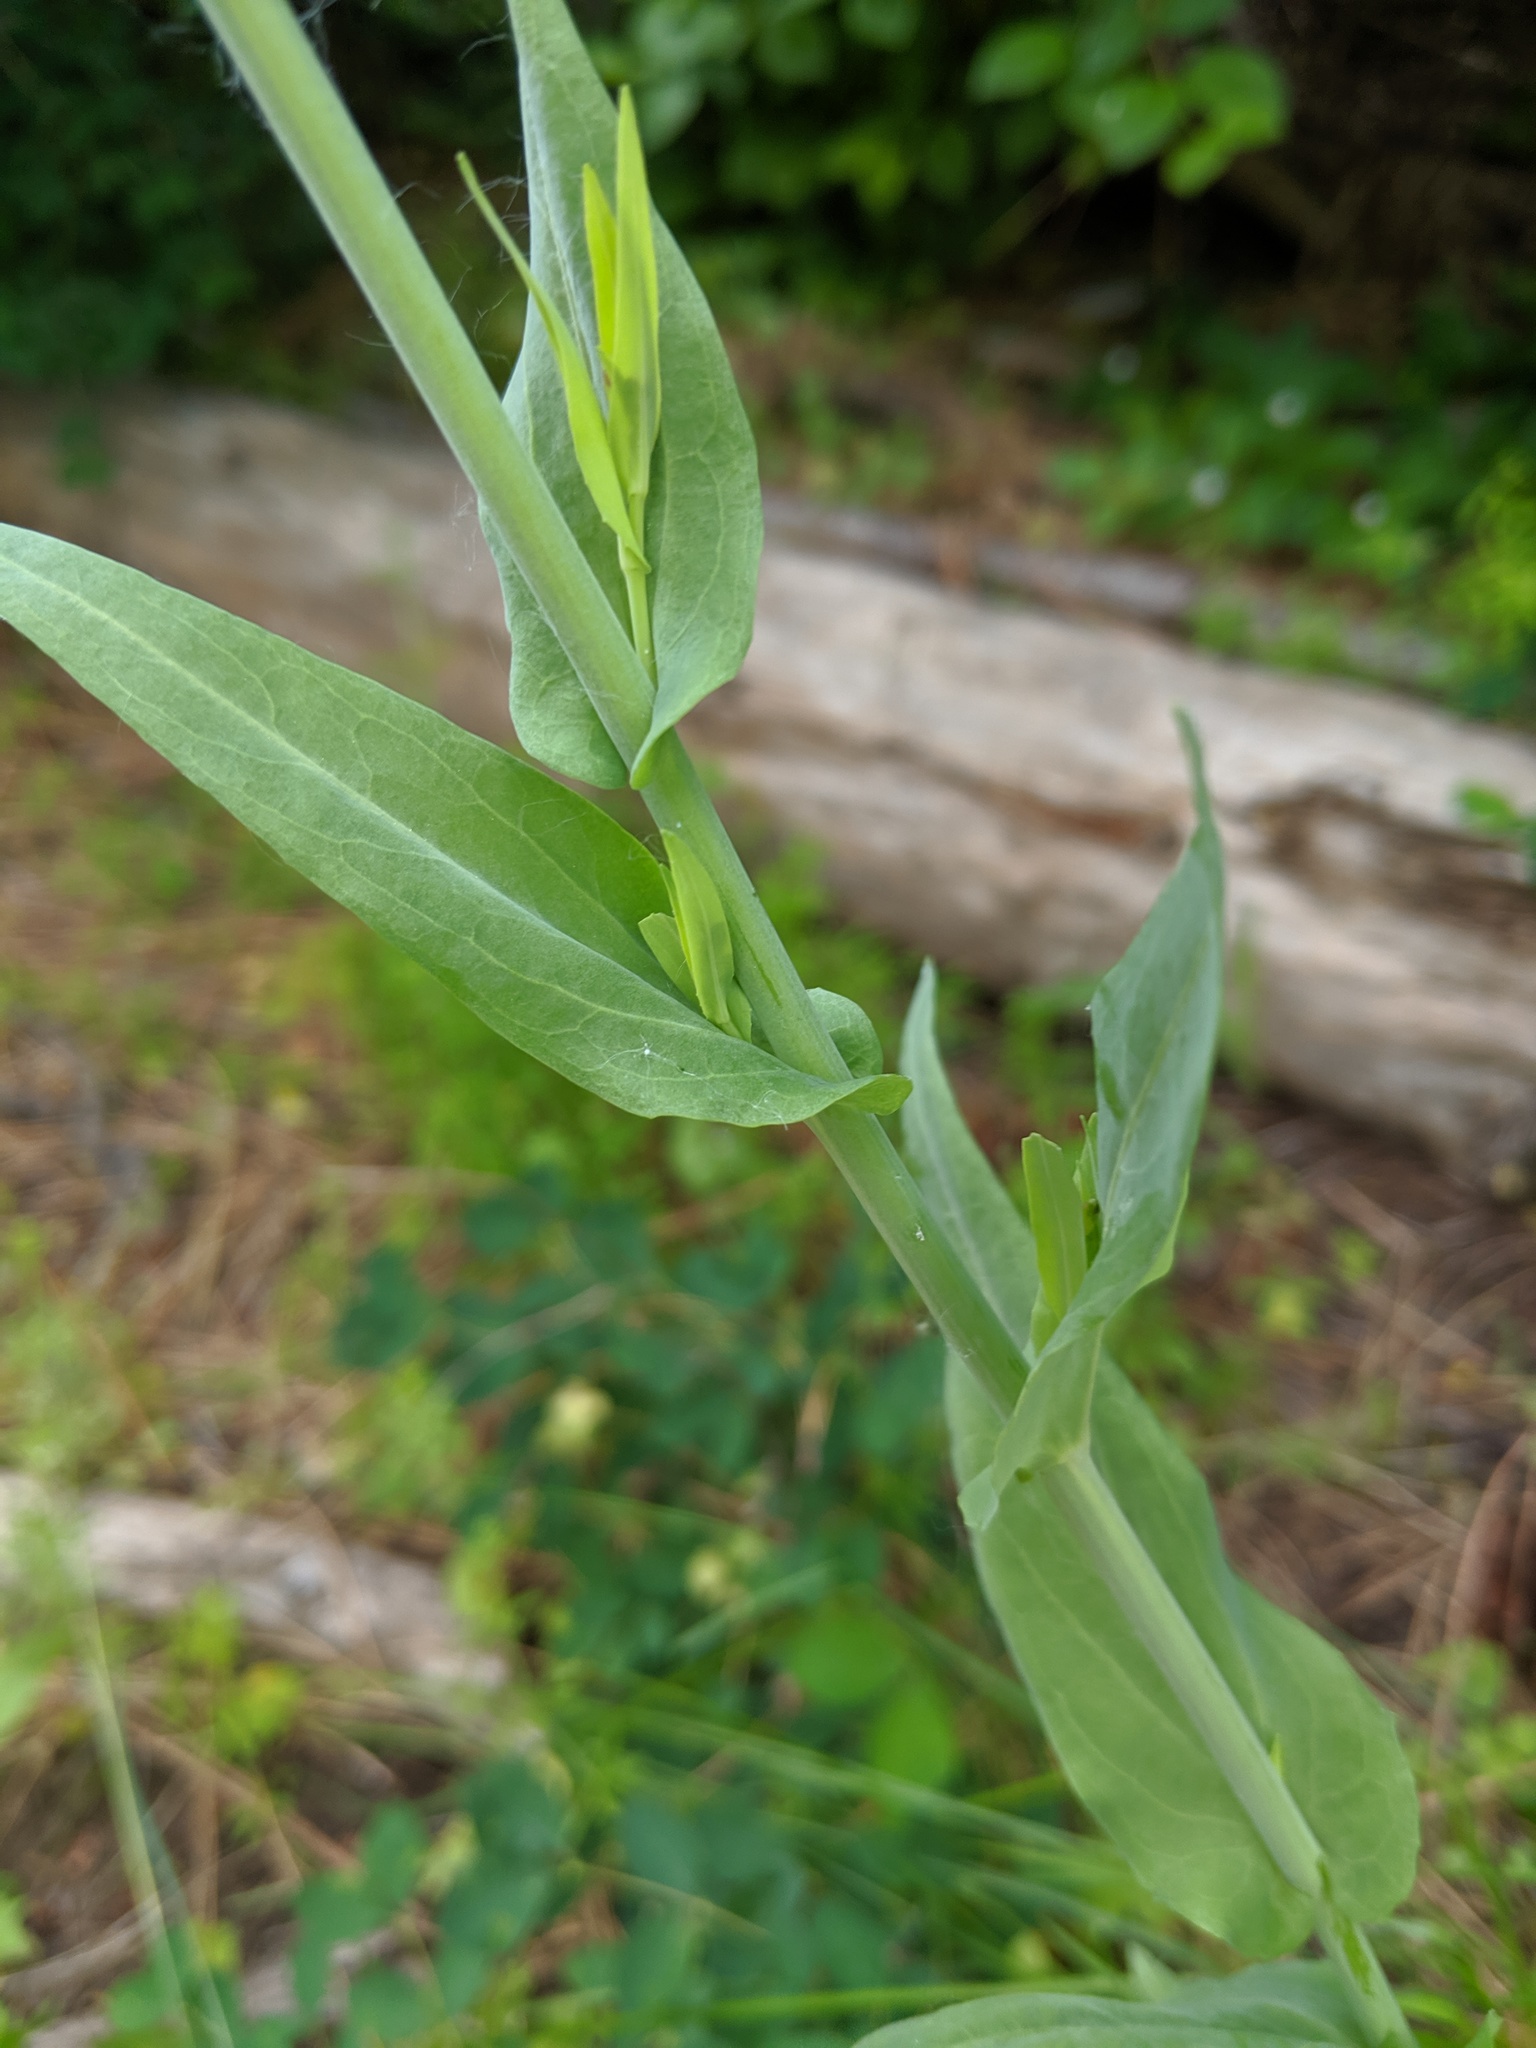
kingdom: Plantae
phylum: Tracheophyta
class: Magnoliopsida
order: Brassicales
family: Brassicaceae
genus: Turritis
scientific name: Turritis glabra
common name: Tower rockcress
